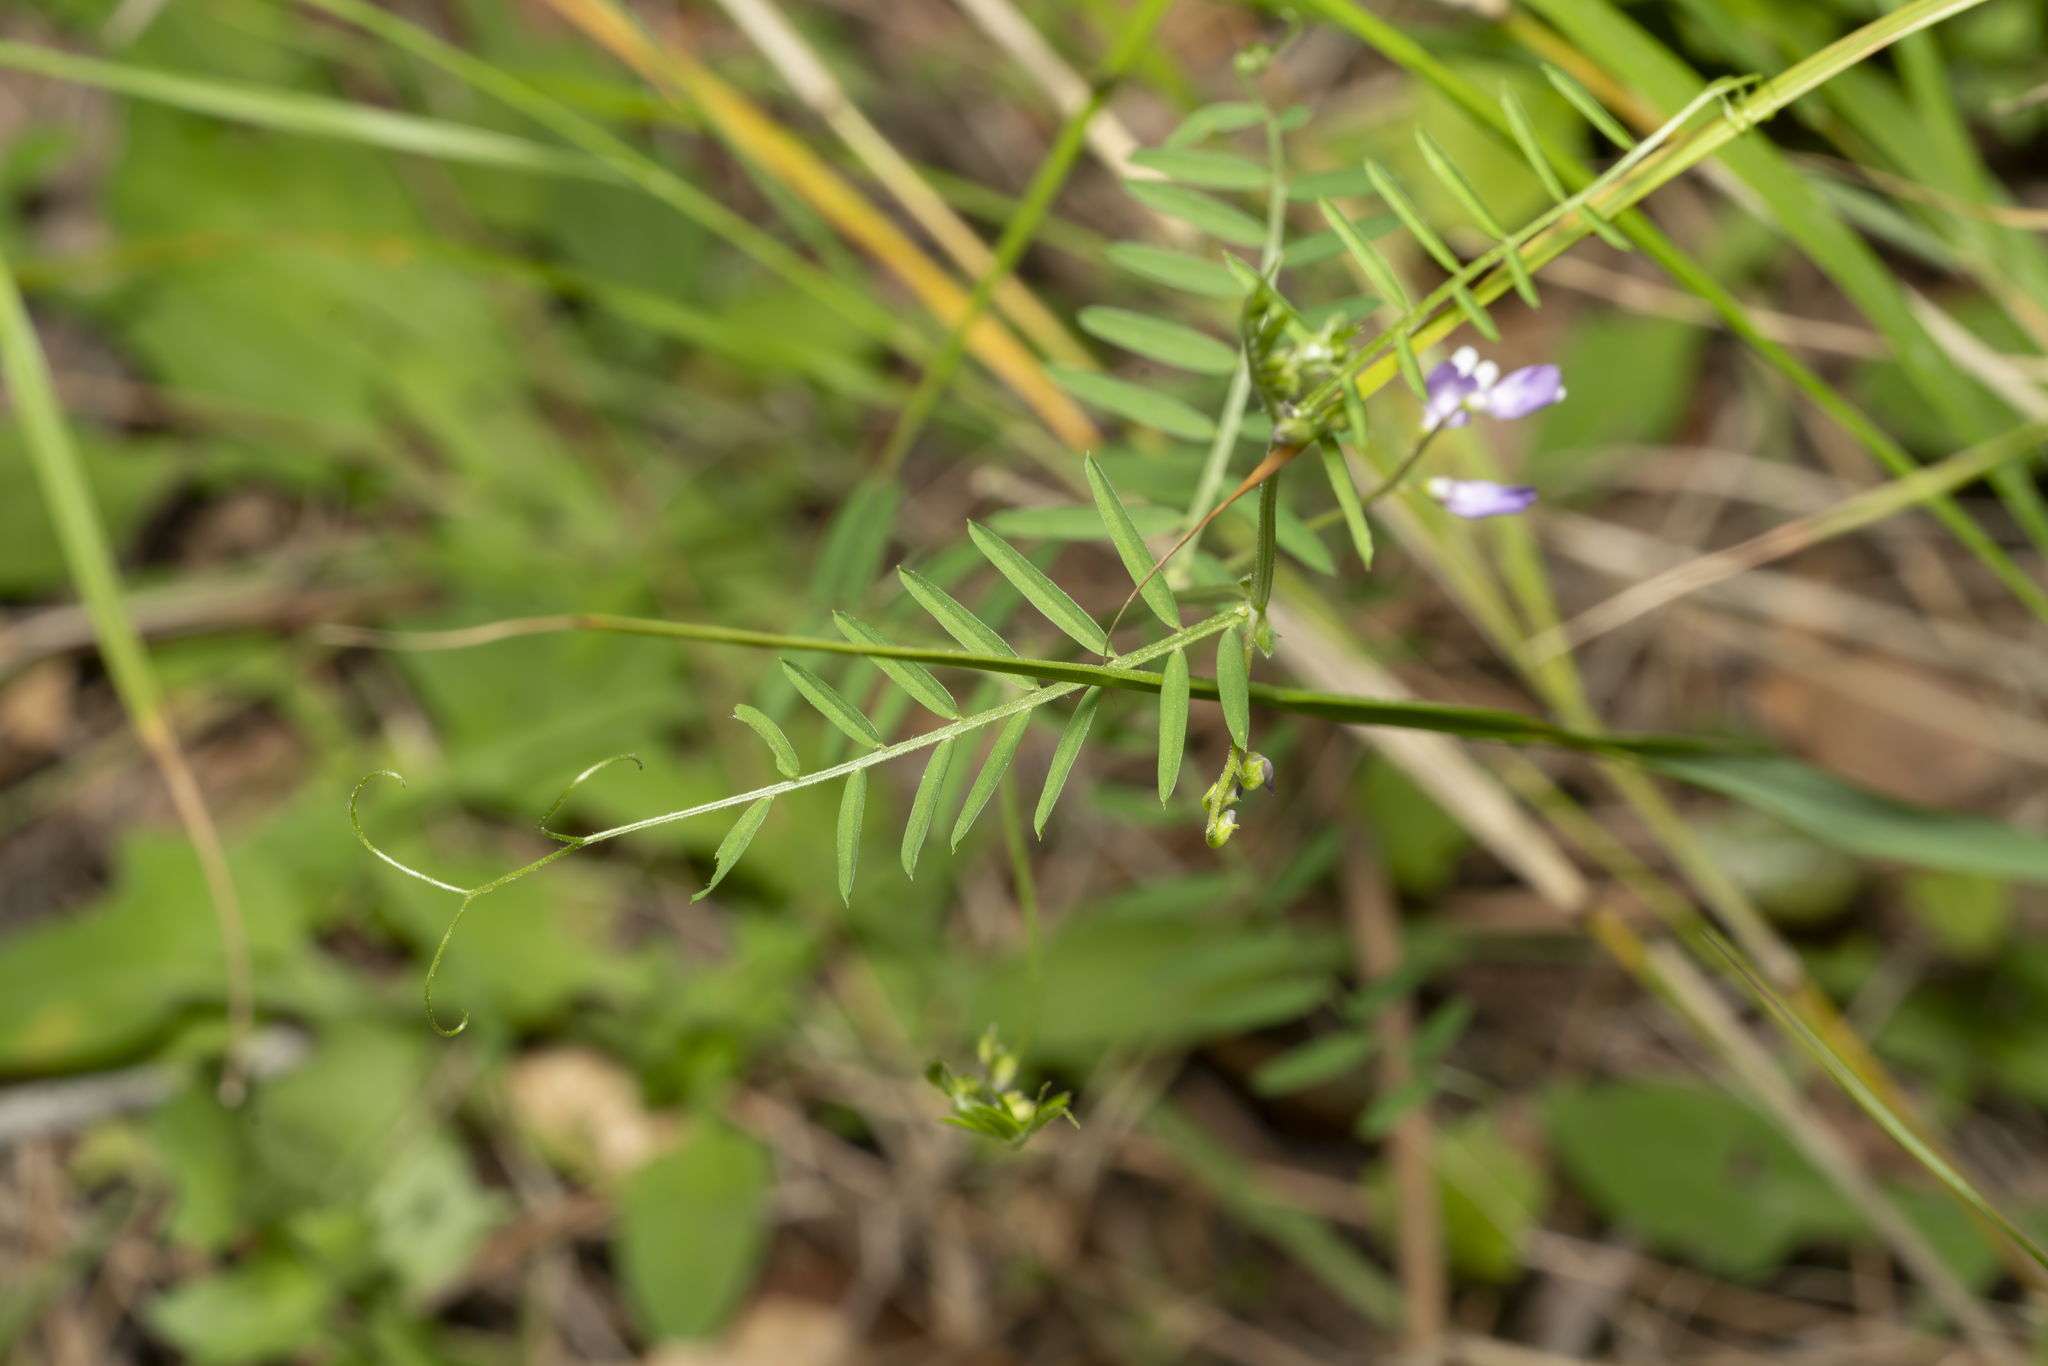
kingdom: Plantae
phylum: Tracheophyta
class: Magnoliopsida
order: Fabales
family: Fabaceae
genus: Vicia
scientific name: Vicia palaestina
